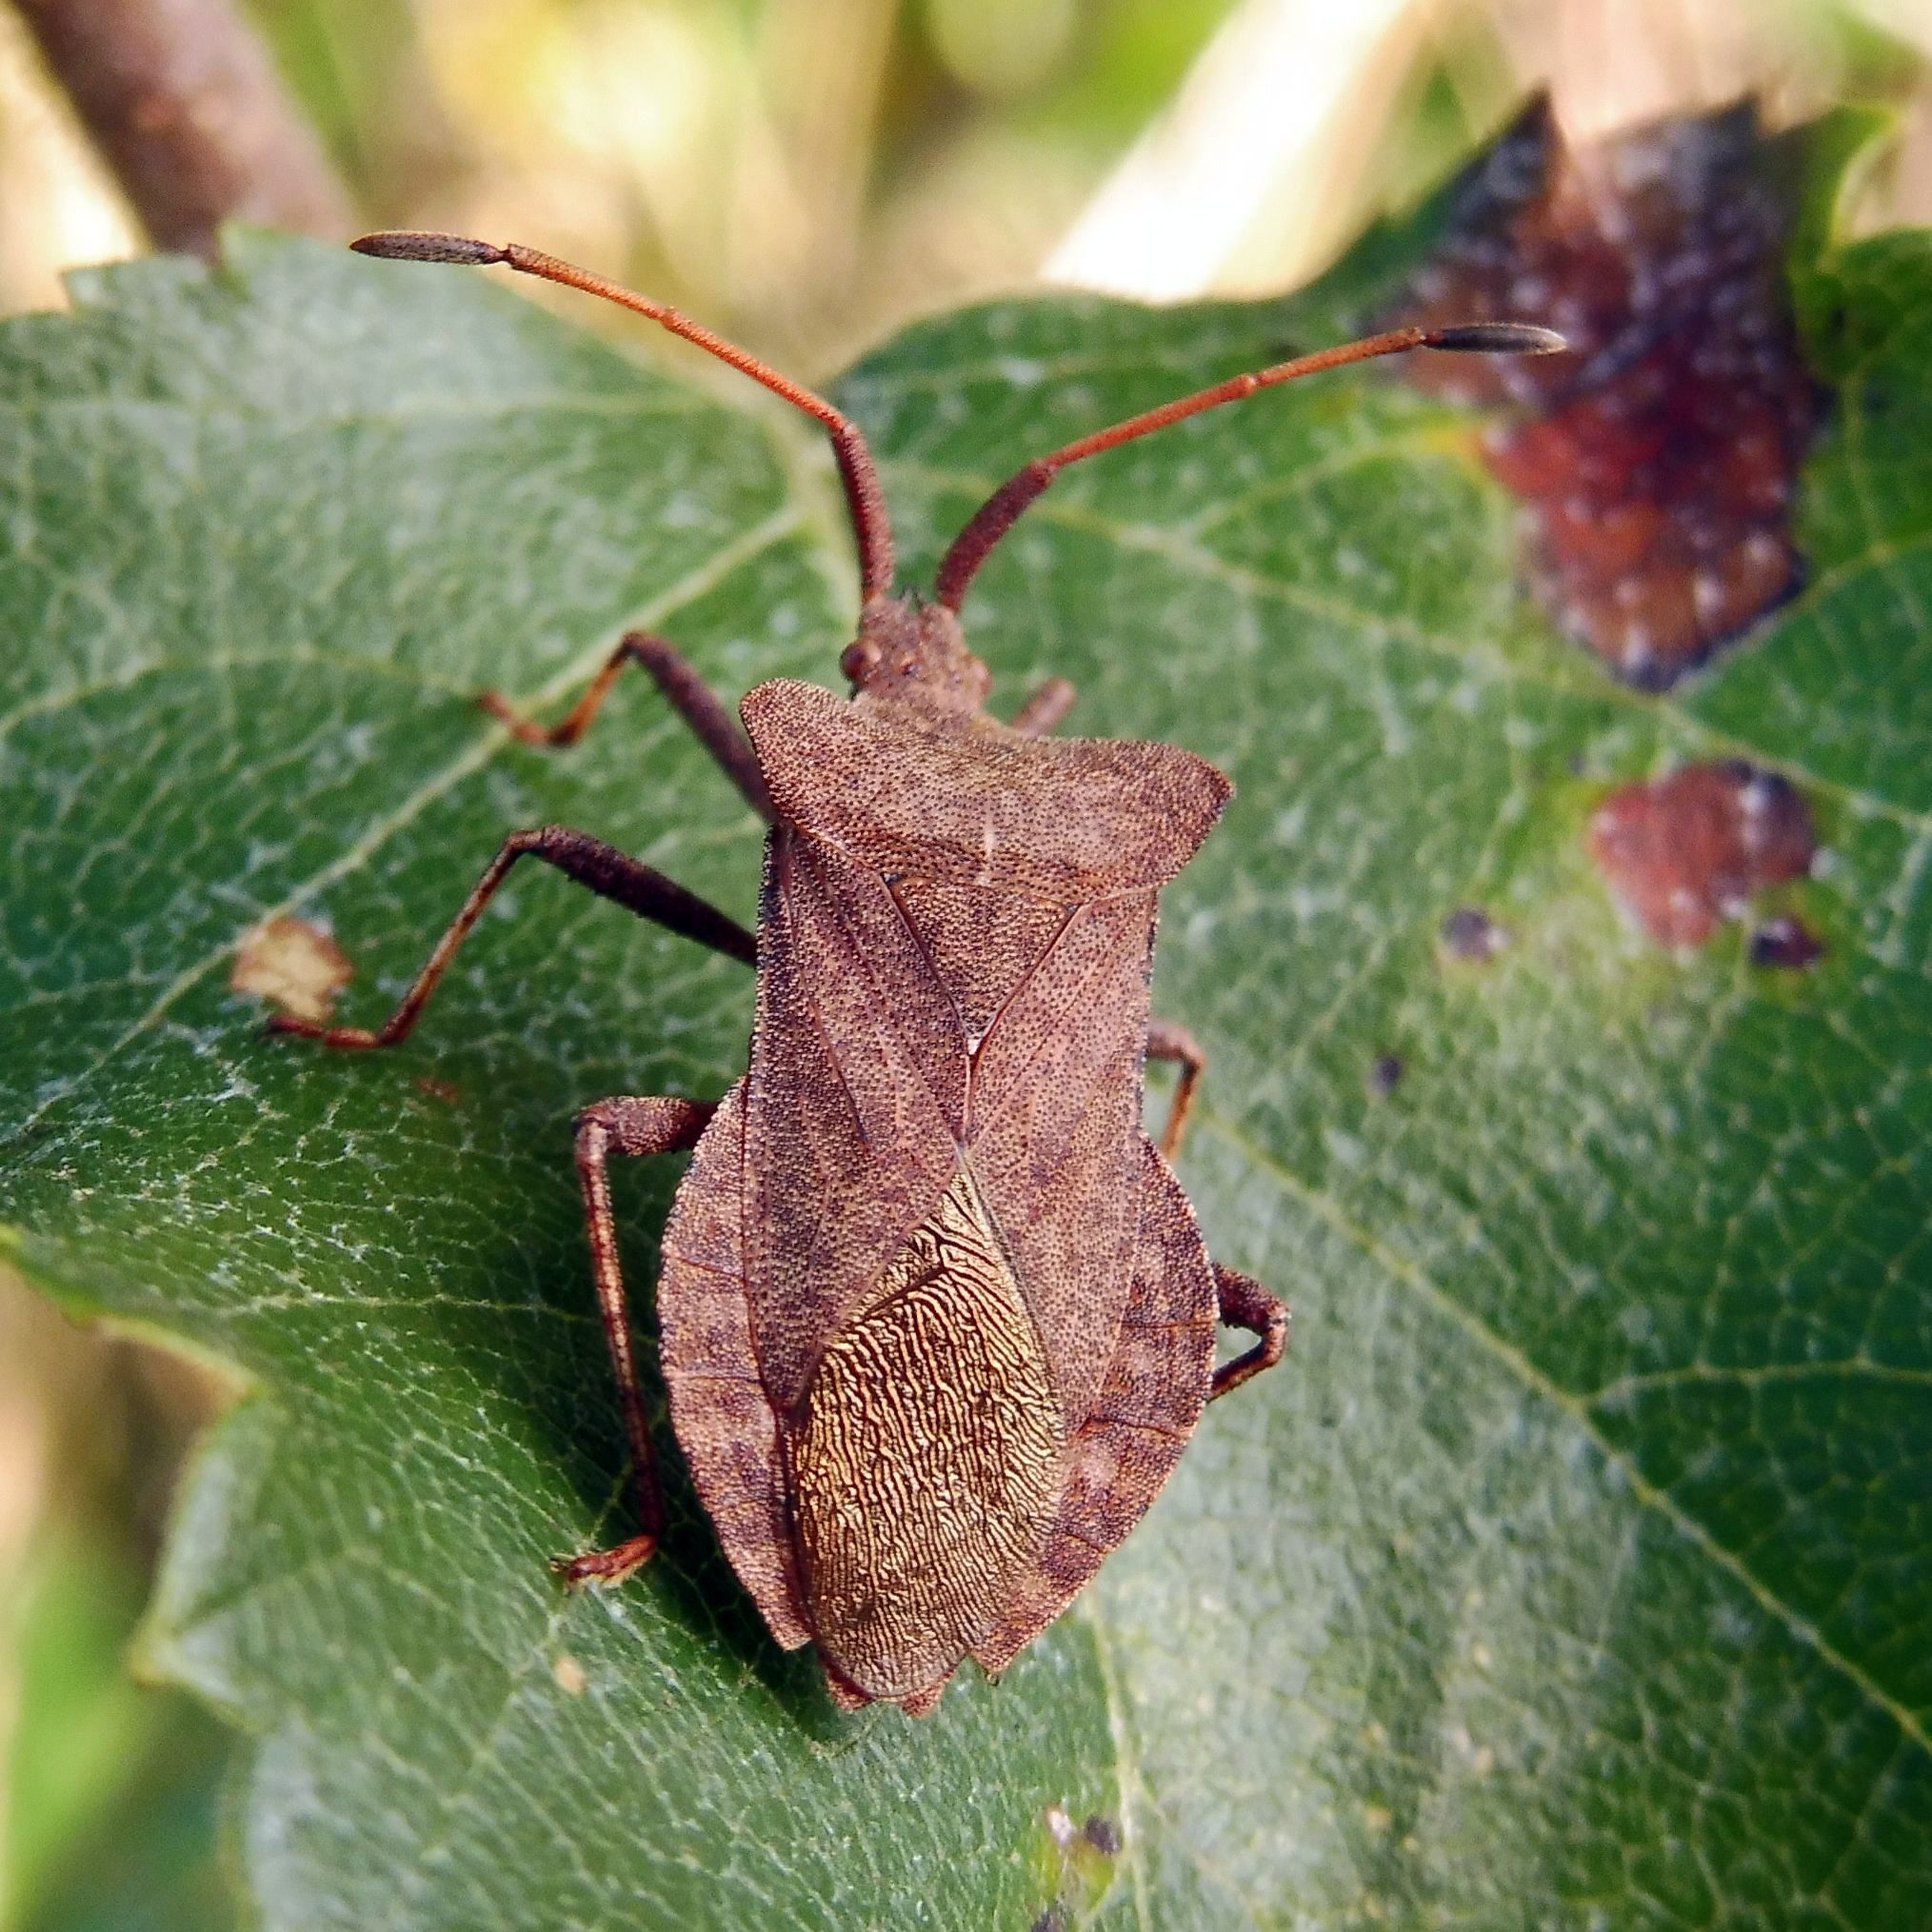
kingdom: Animalia
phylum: Arthropoda
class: Insecta
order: Hemiptera
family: Coreidae
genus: Coreus
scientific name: Coreus marginatus
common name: Dock bug
